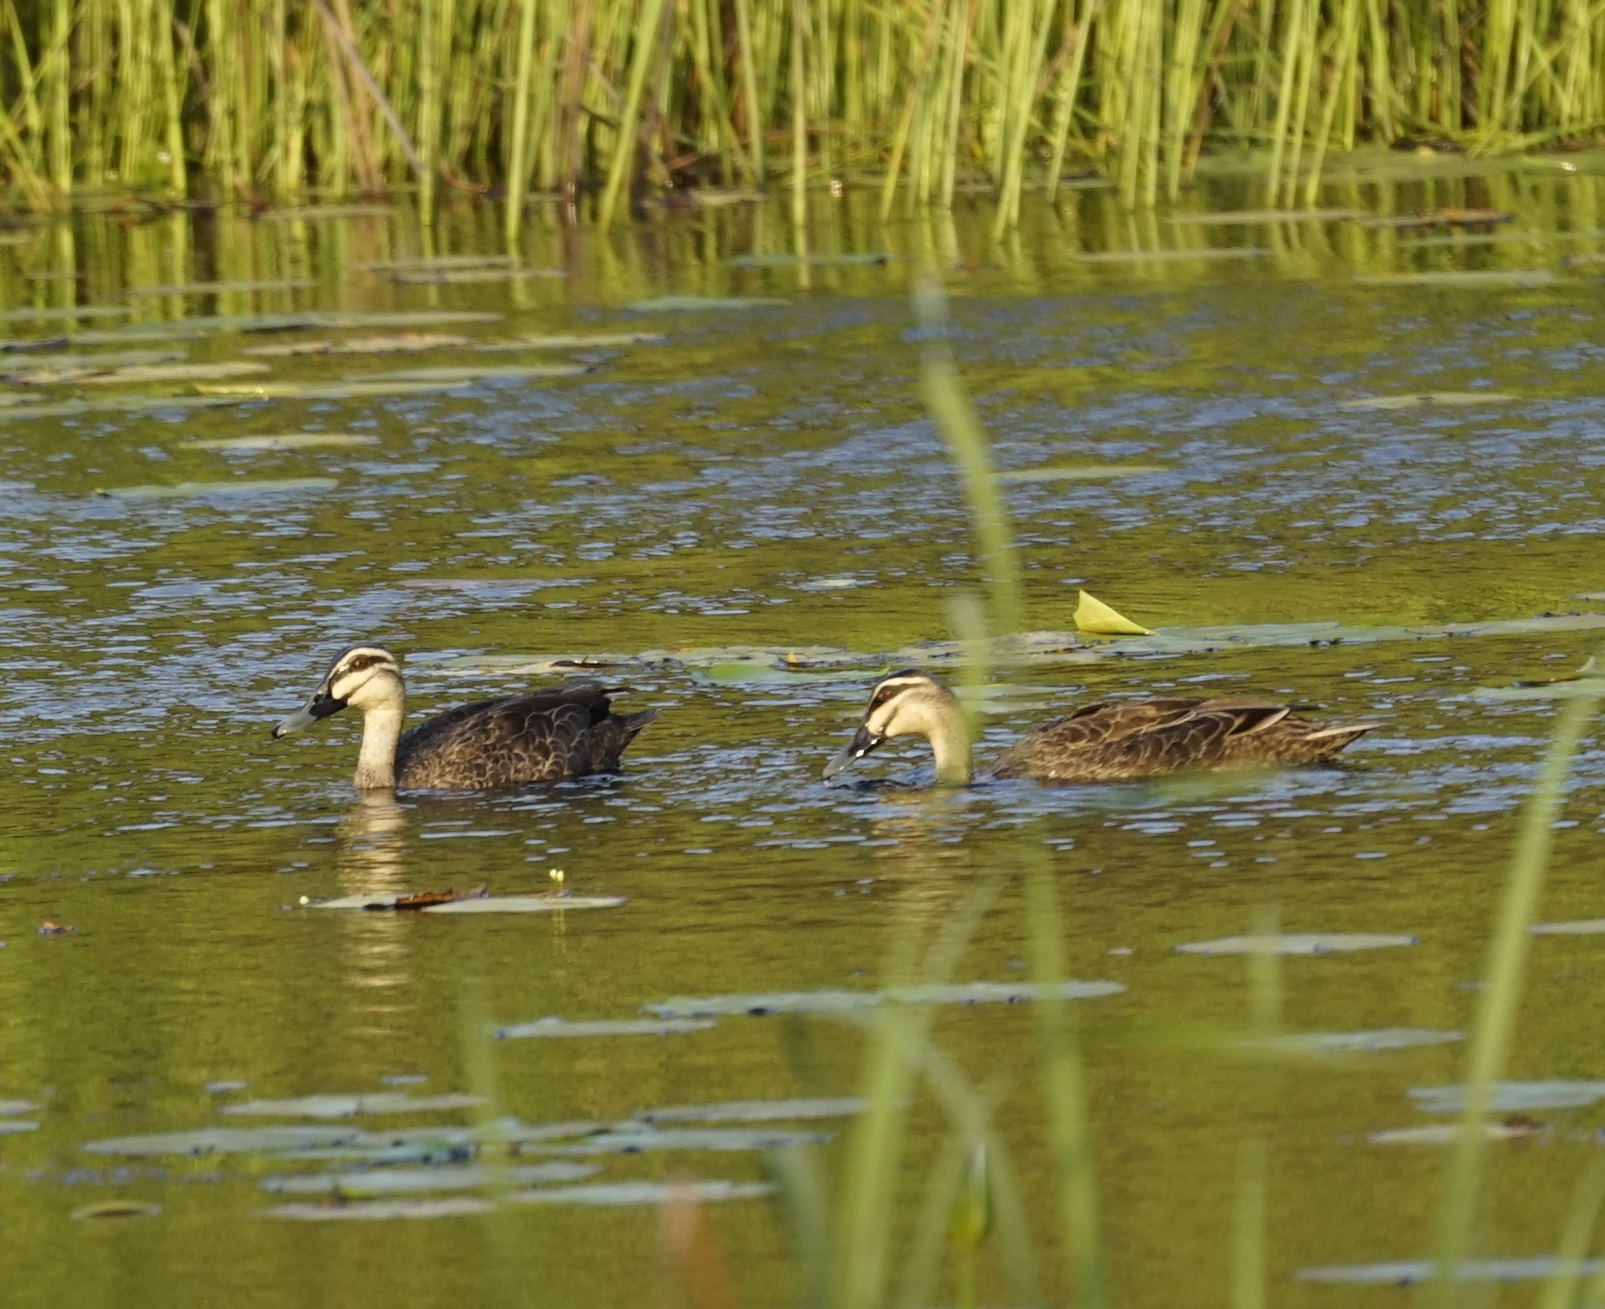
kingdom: Animalia
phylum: Chordata
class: Aves
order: Anseriformes
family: Anatidae
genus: Anas
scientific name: Anas superciliosa
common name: Pacific black duck
